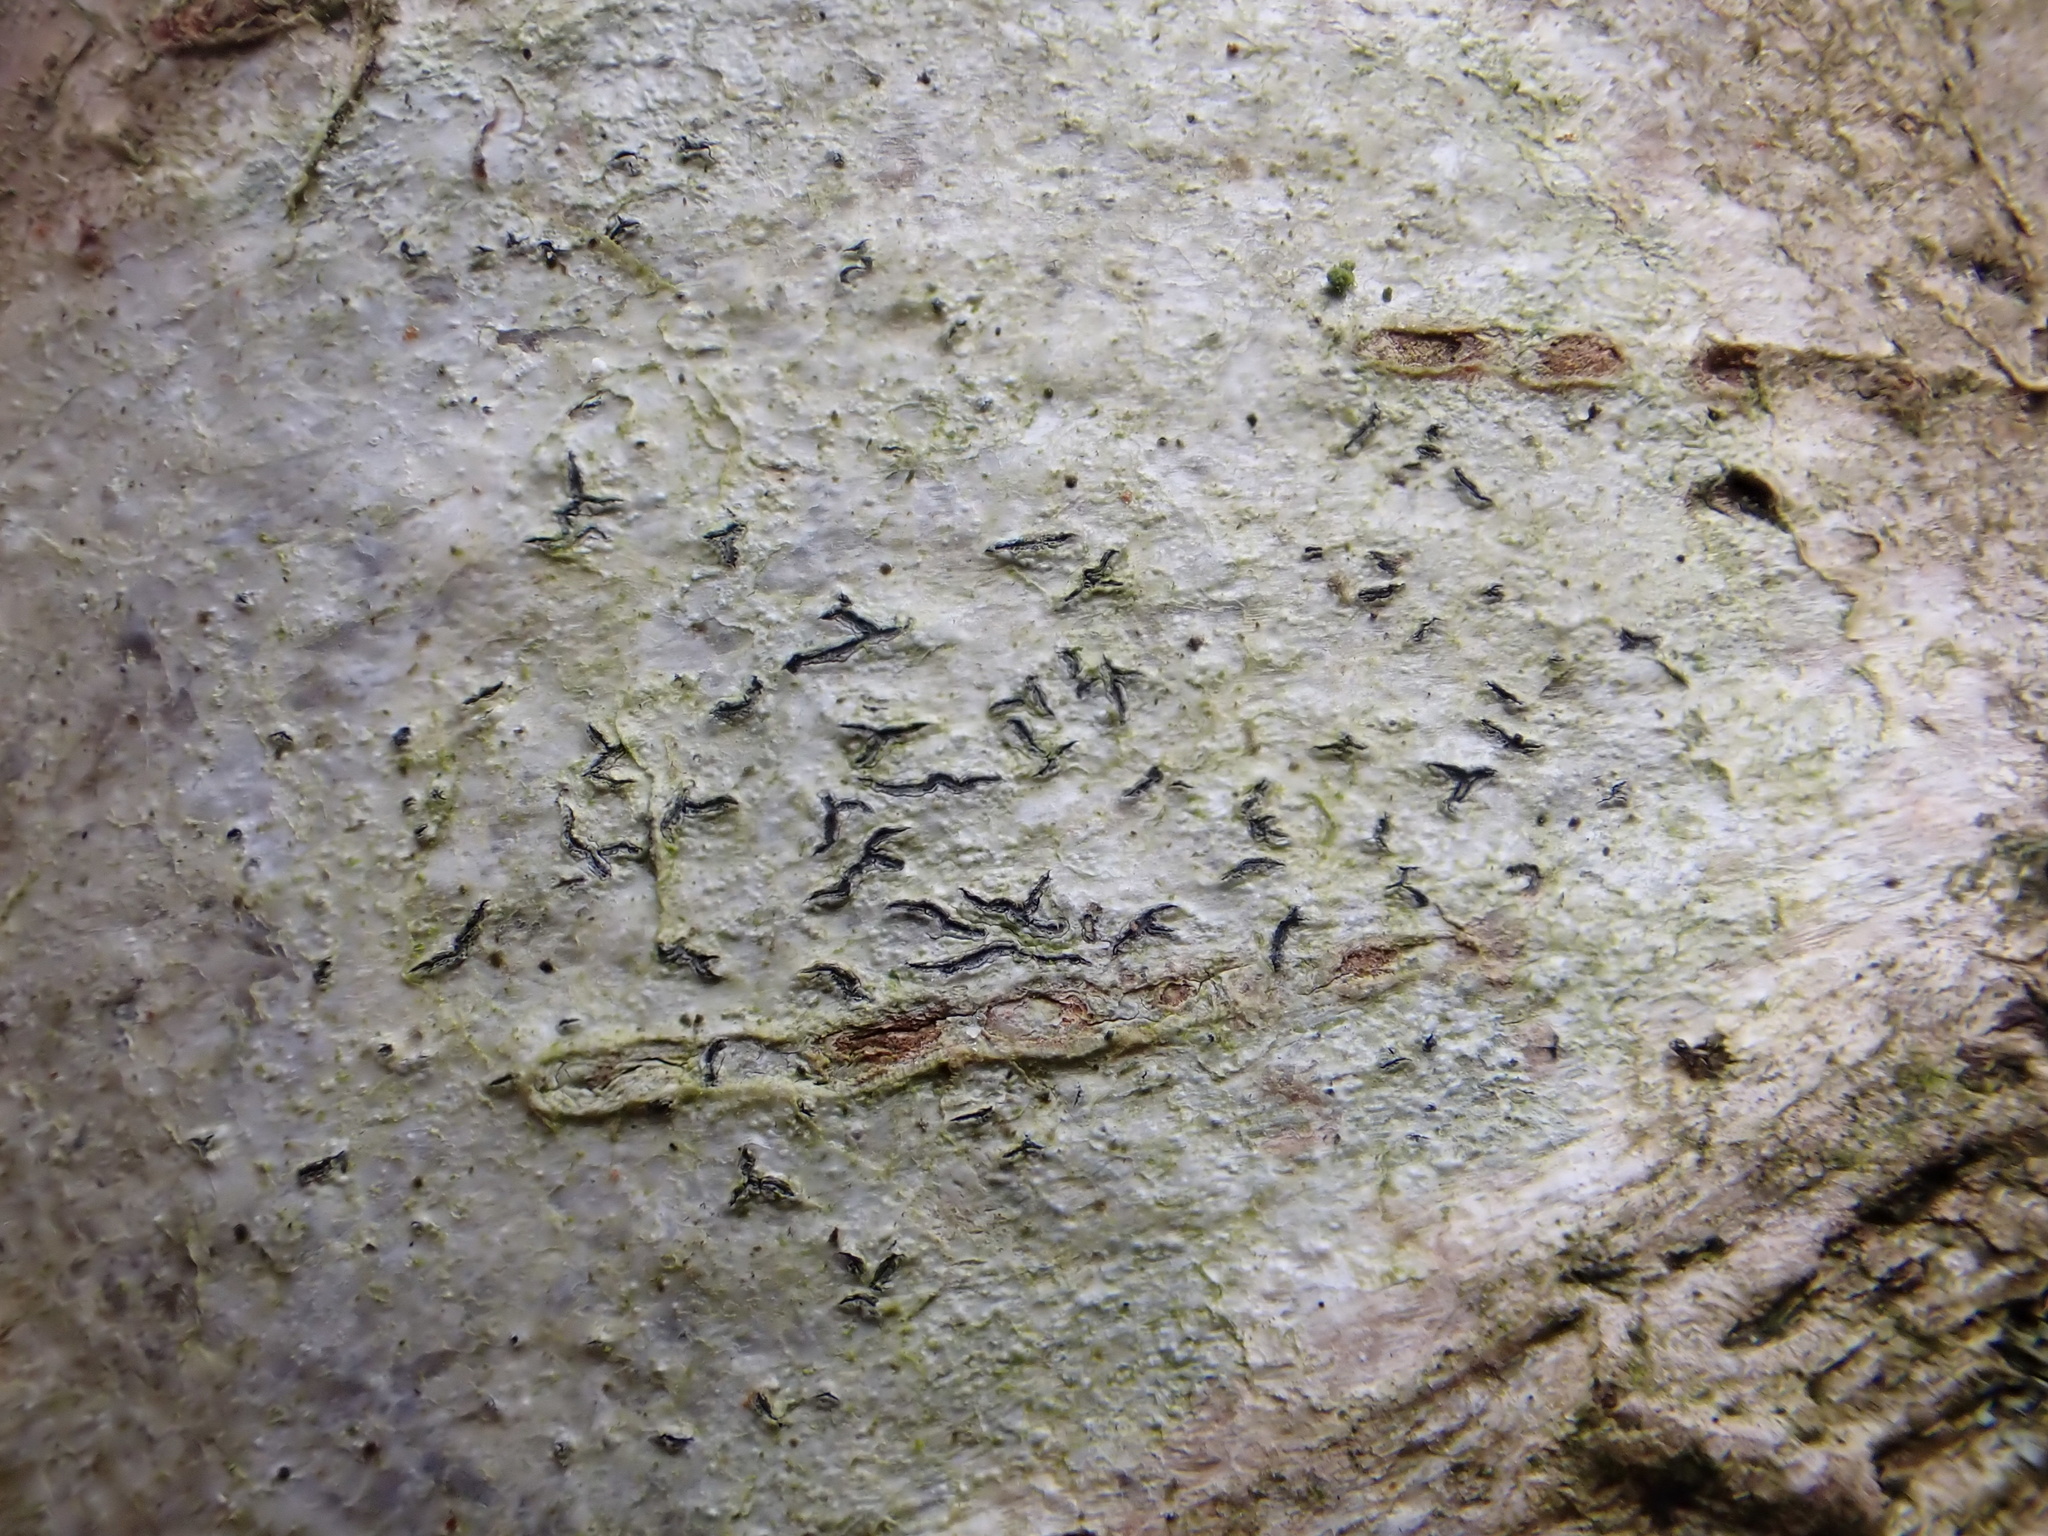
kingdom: Fungi
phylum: Ascomycota
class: Lecanoromycetes
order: Ostropales
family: Graphidaceae
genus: Graphis
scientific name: Graphis scripta
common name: Script lichen
